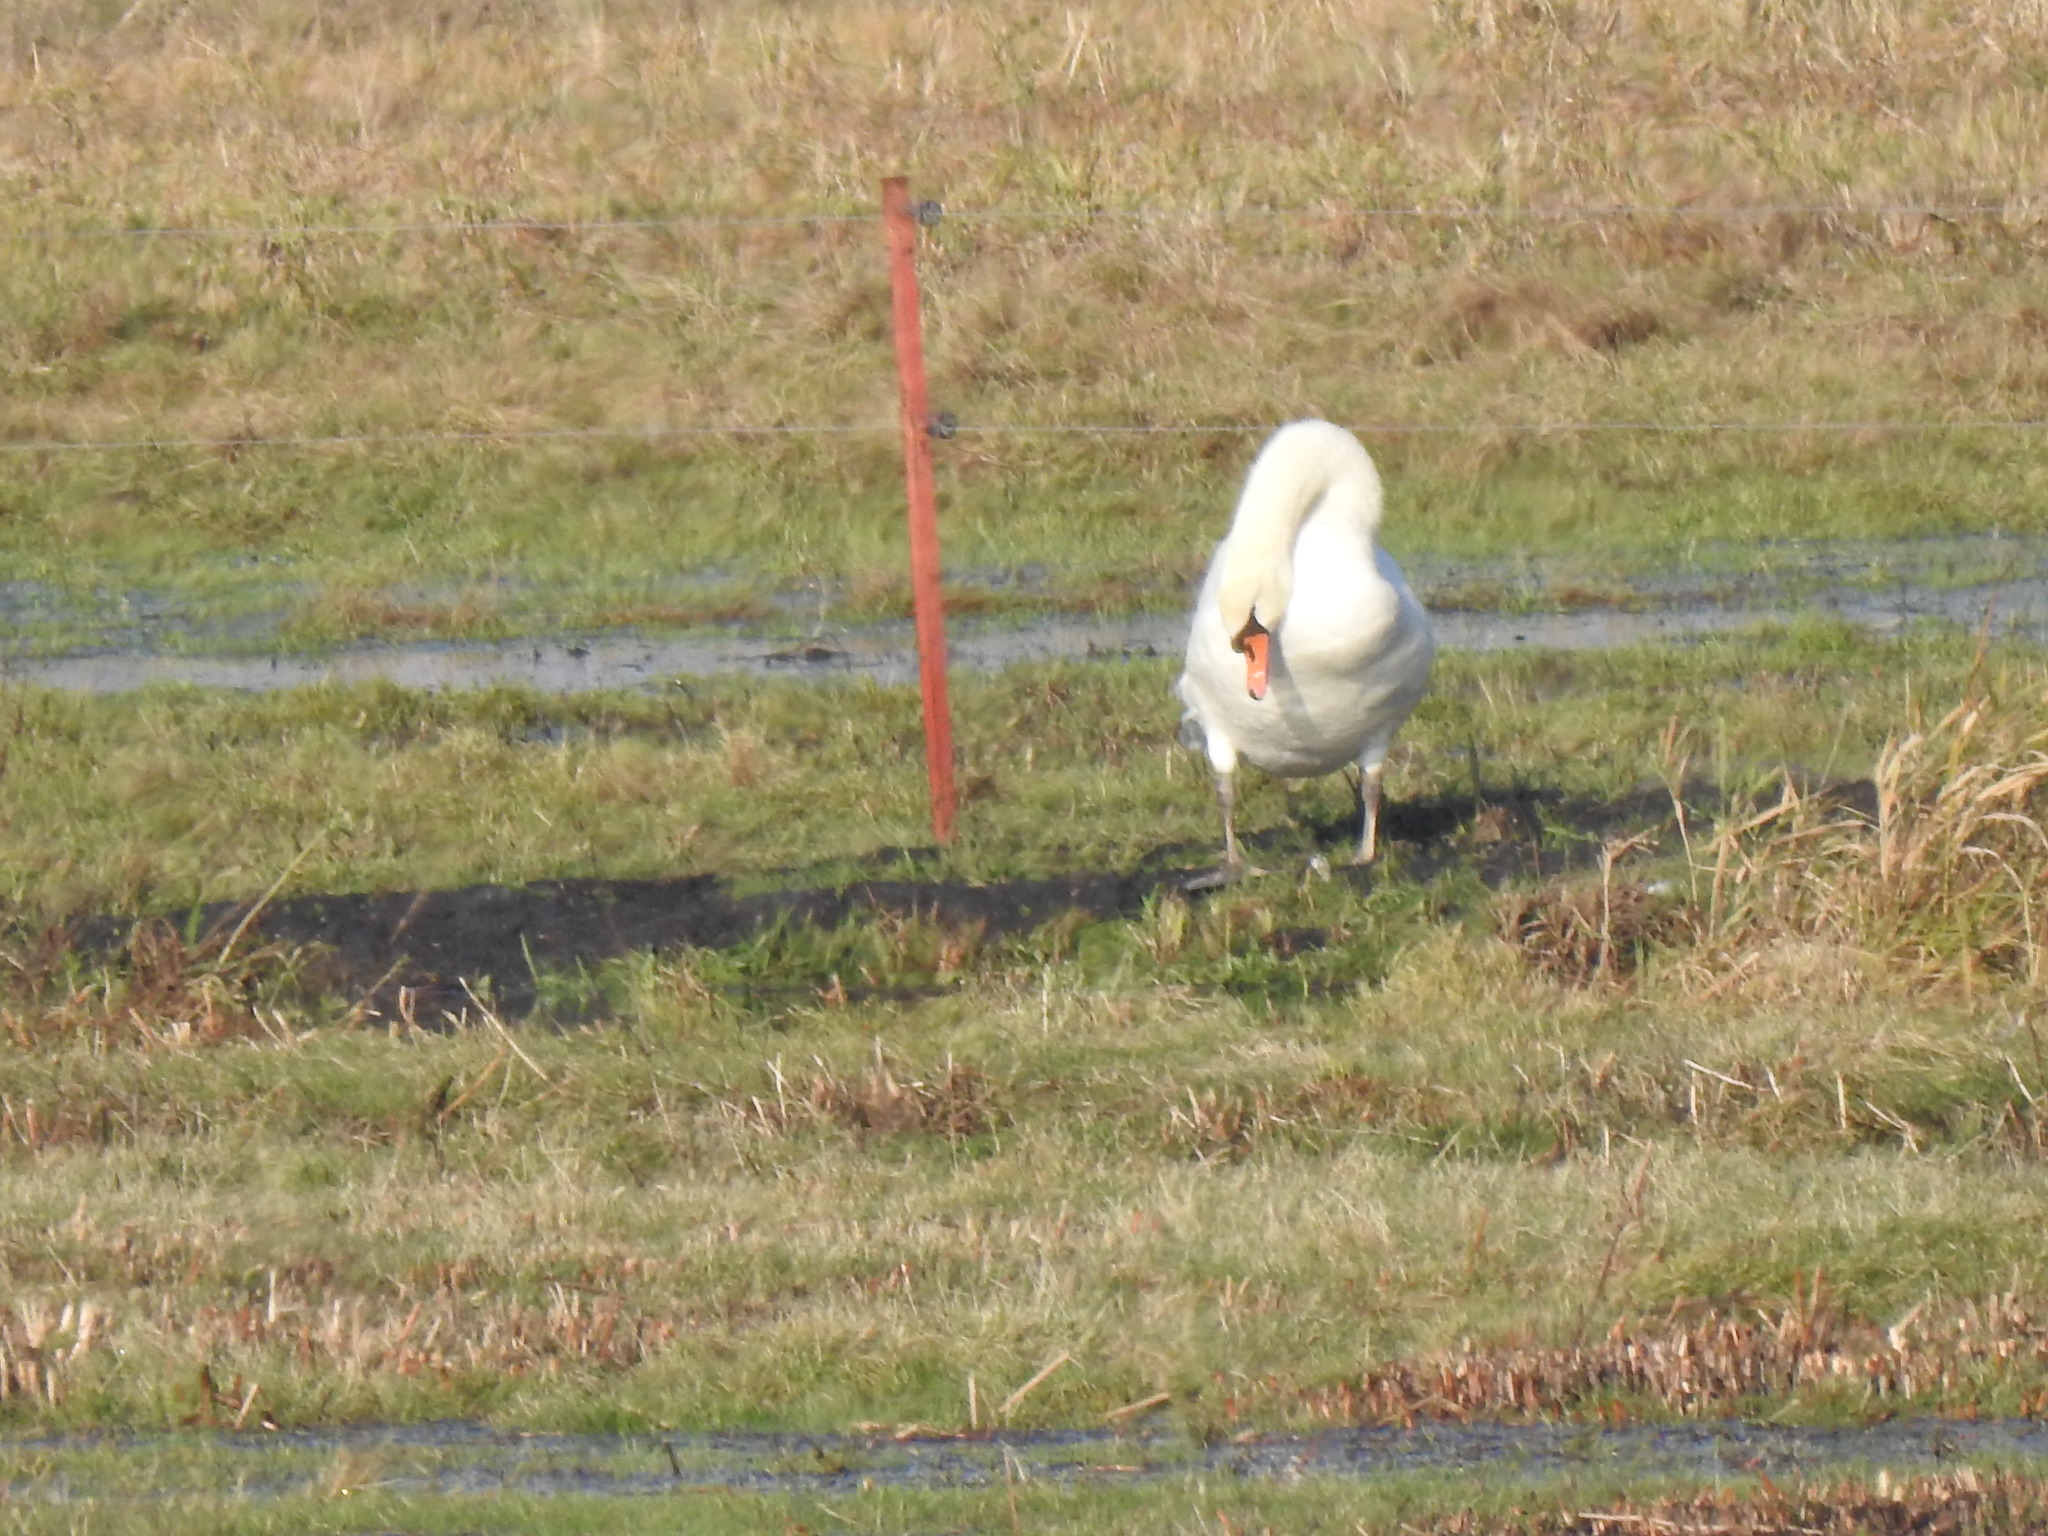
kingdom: Animalia
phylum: Chordata
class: Aves
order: Anseriformes
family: Anatidae
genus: Cygnus
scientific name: Cygnus olor
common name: Mute swan
